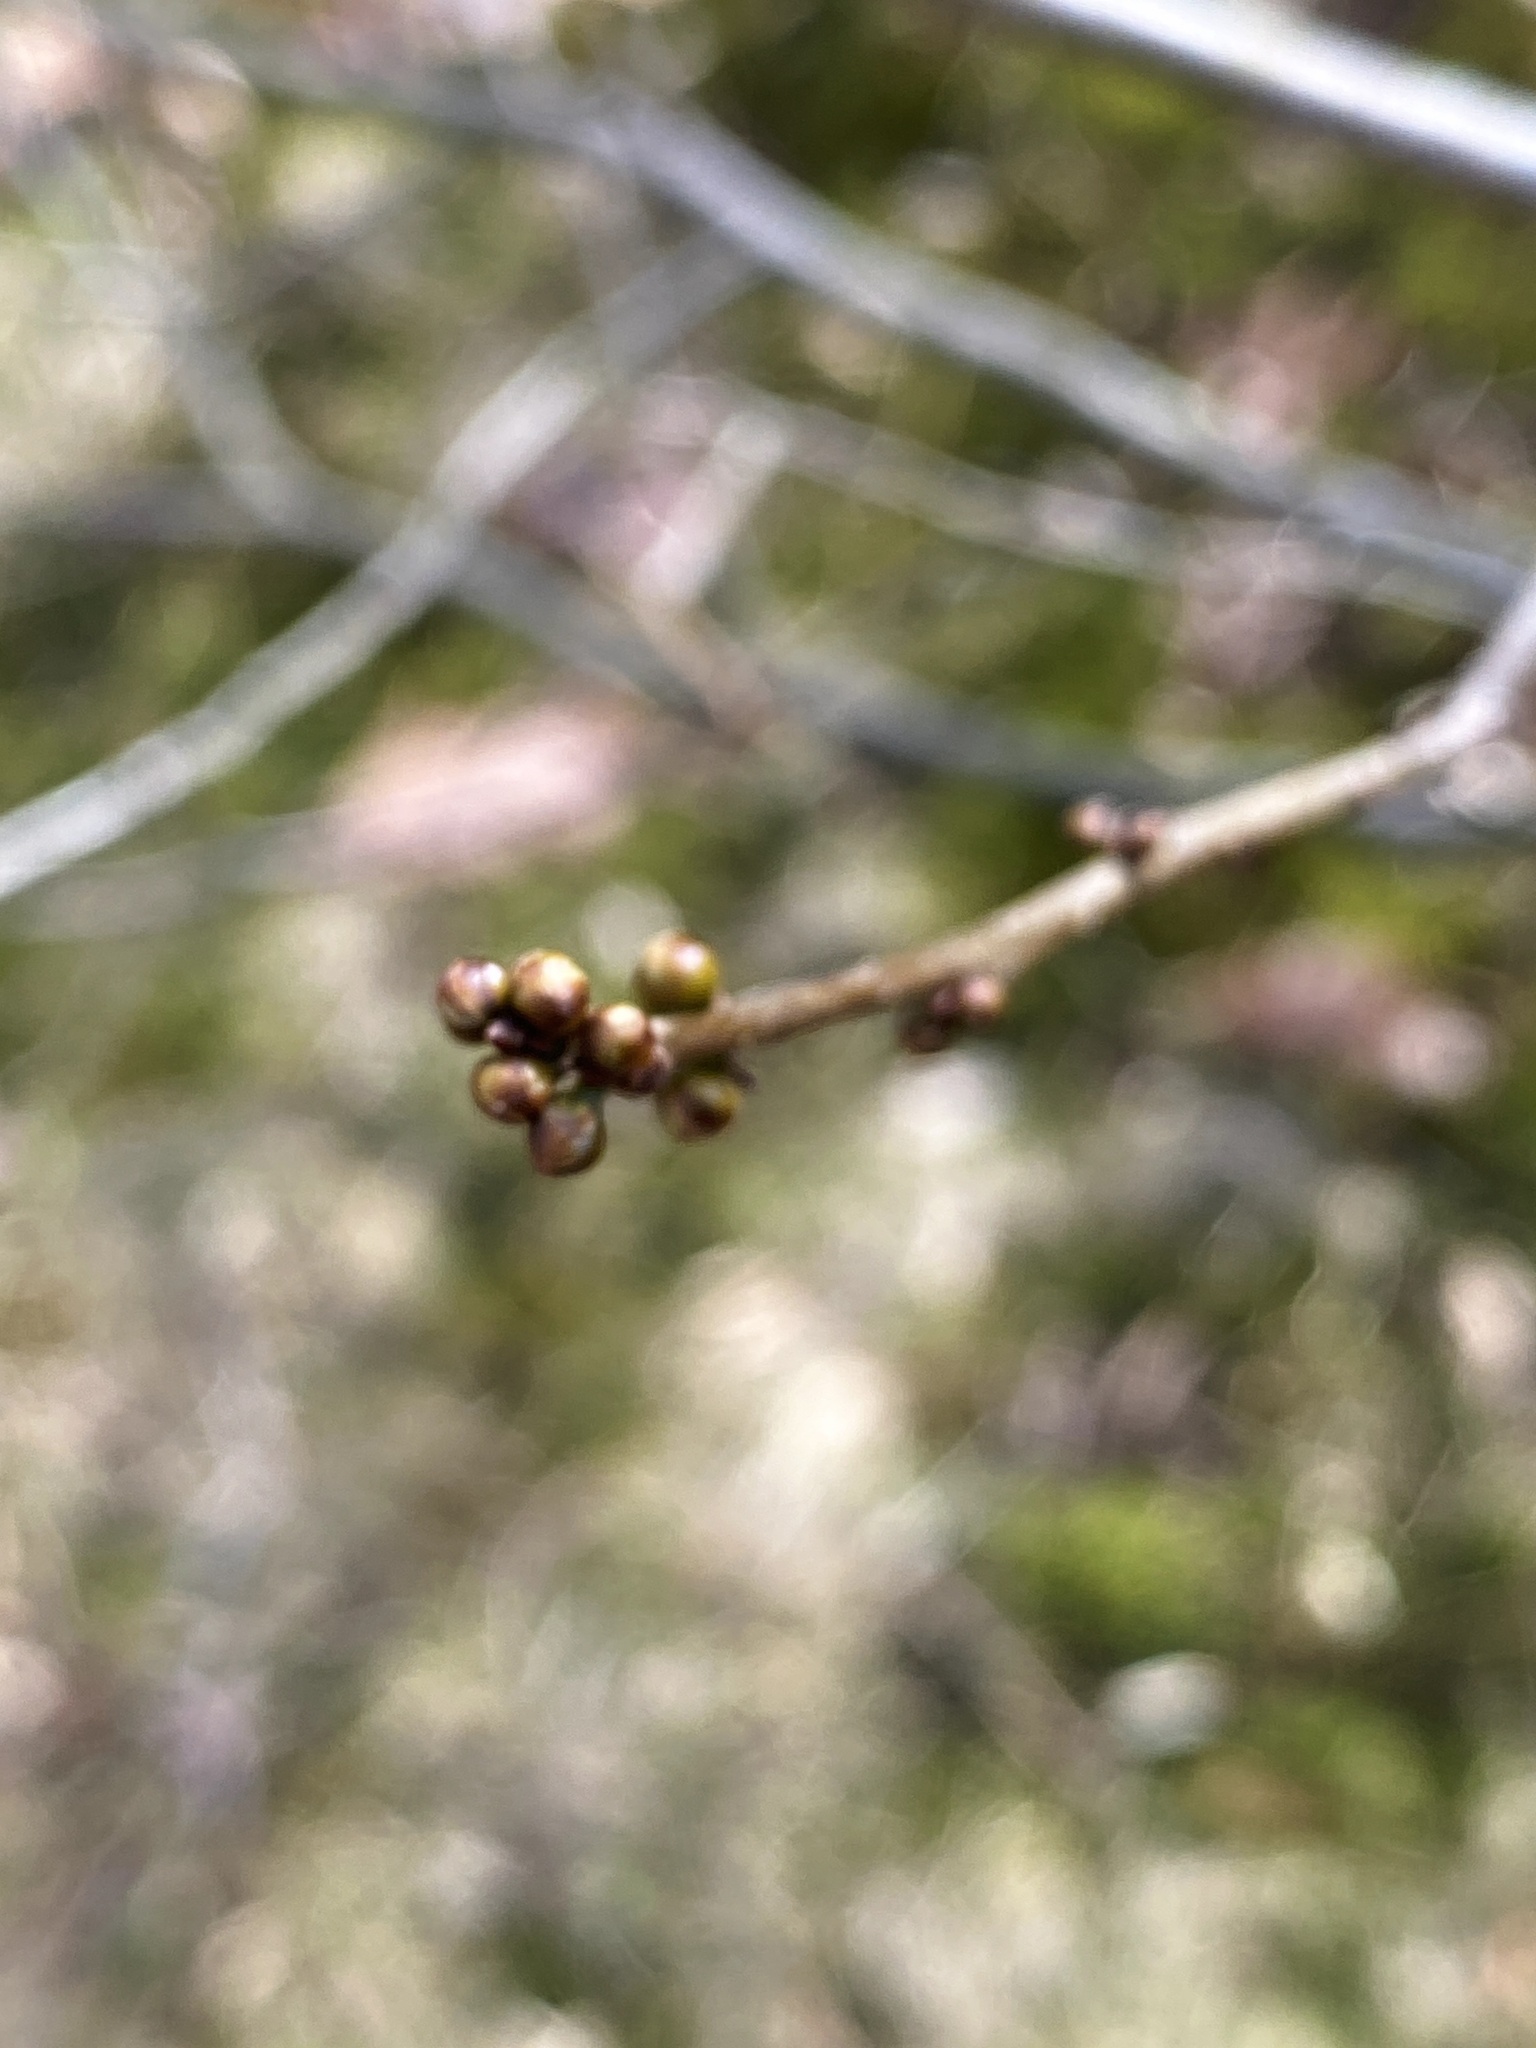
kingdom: Plantae
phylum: Tracheophyta
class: Magnoliopsida
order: Laurales
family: Lauraceae
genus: Lindera
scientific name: Lindera benzoin
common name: Spicebush
